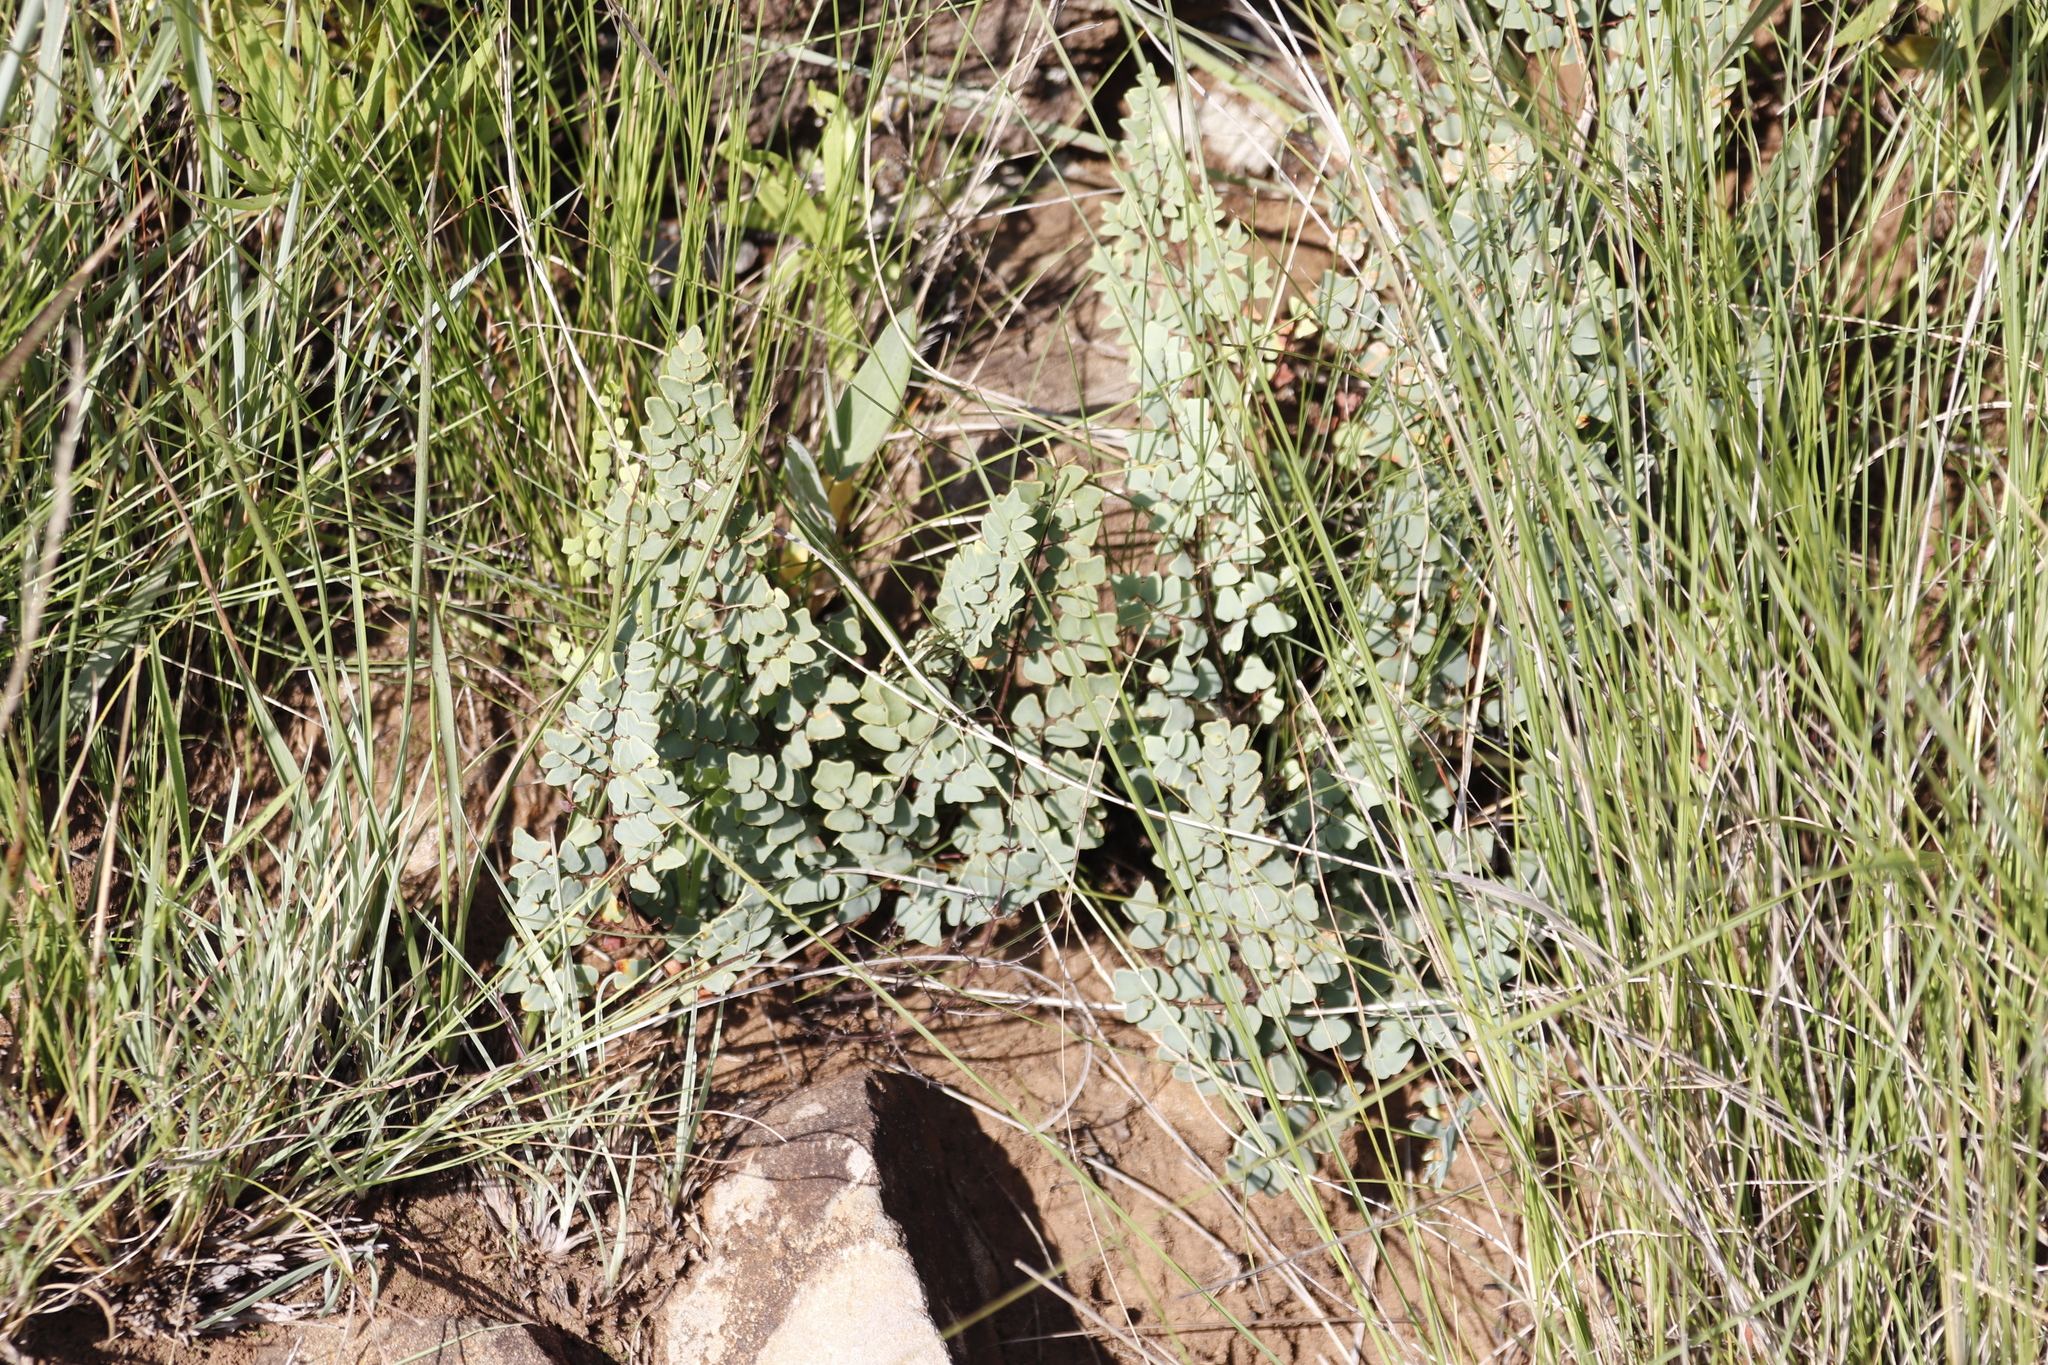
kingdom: Plantae
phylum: Tracheophyta
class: Polypodiopsida
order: Polypodiales
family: Pteridaceae
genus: Pellaea
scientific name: Pellaea calomelanos
